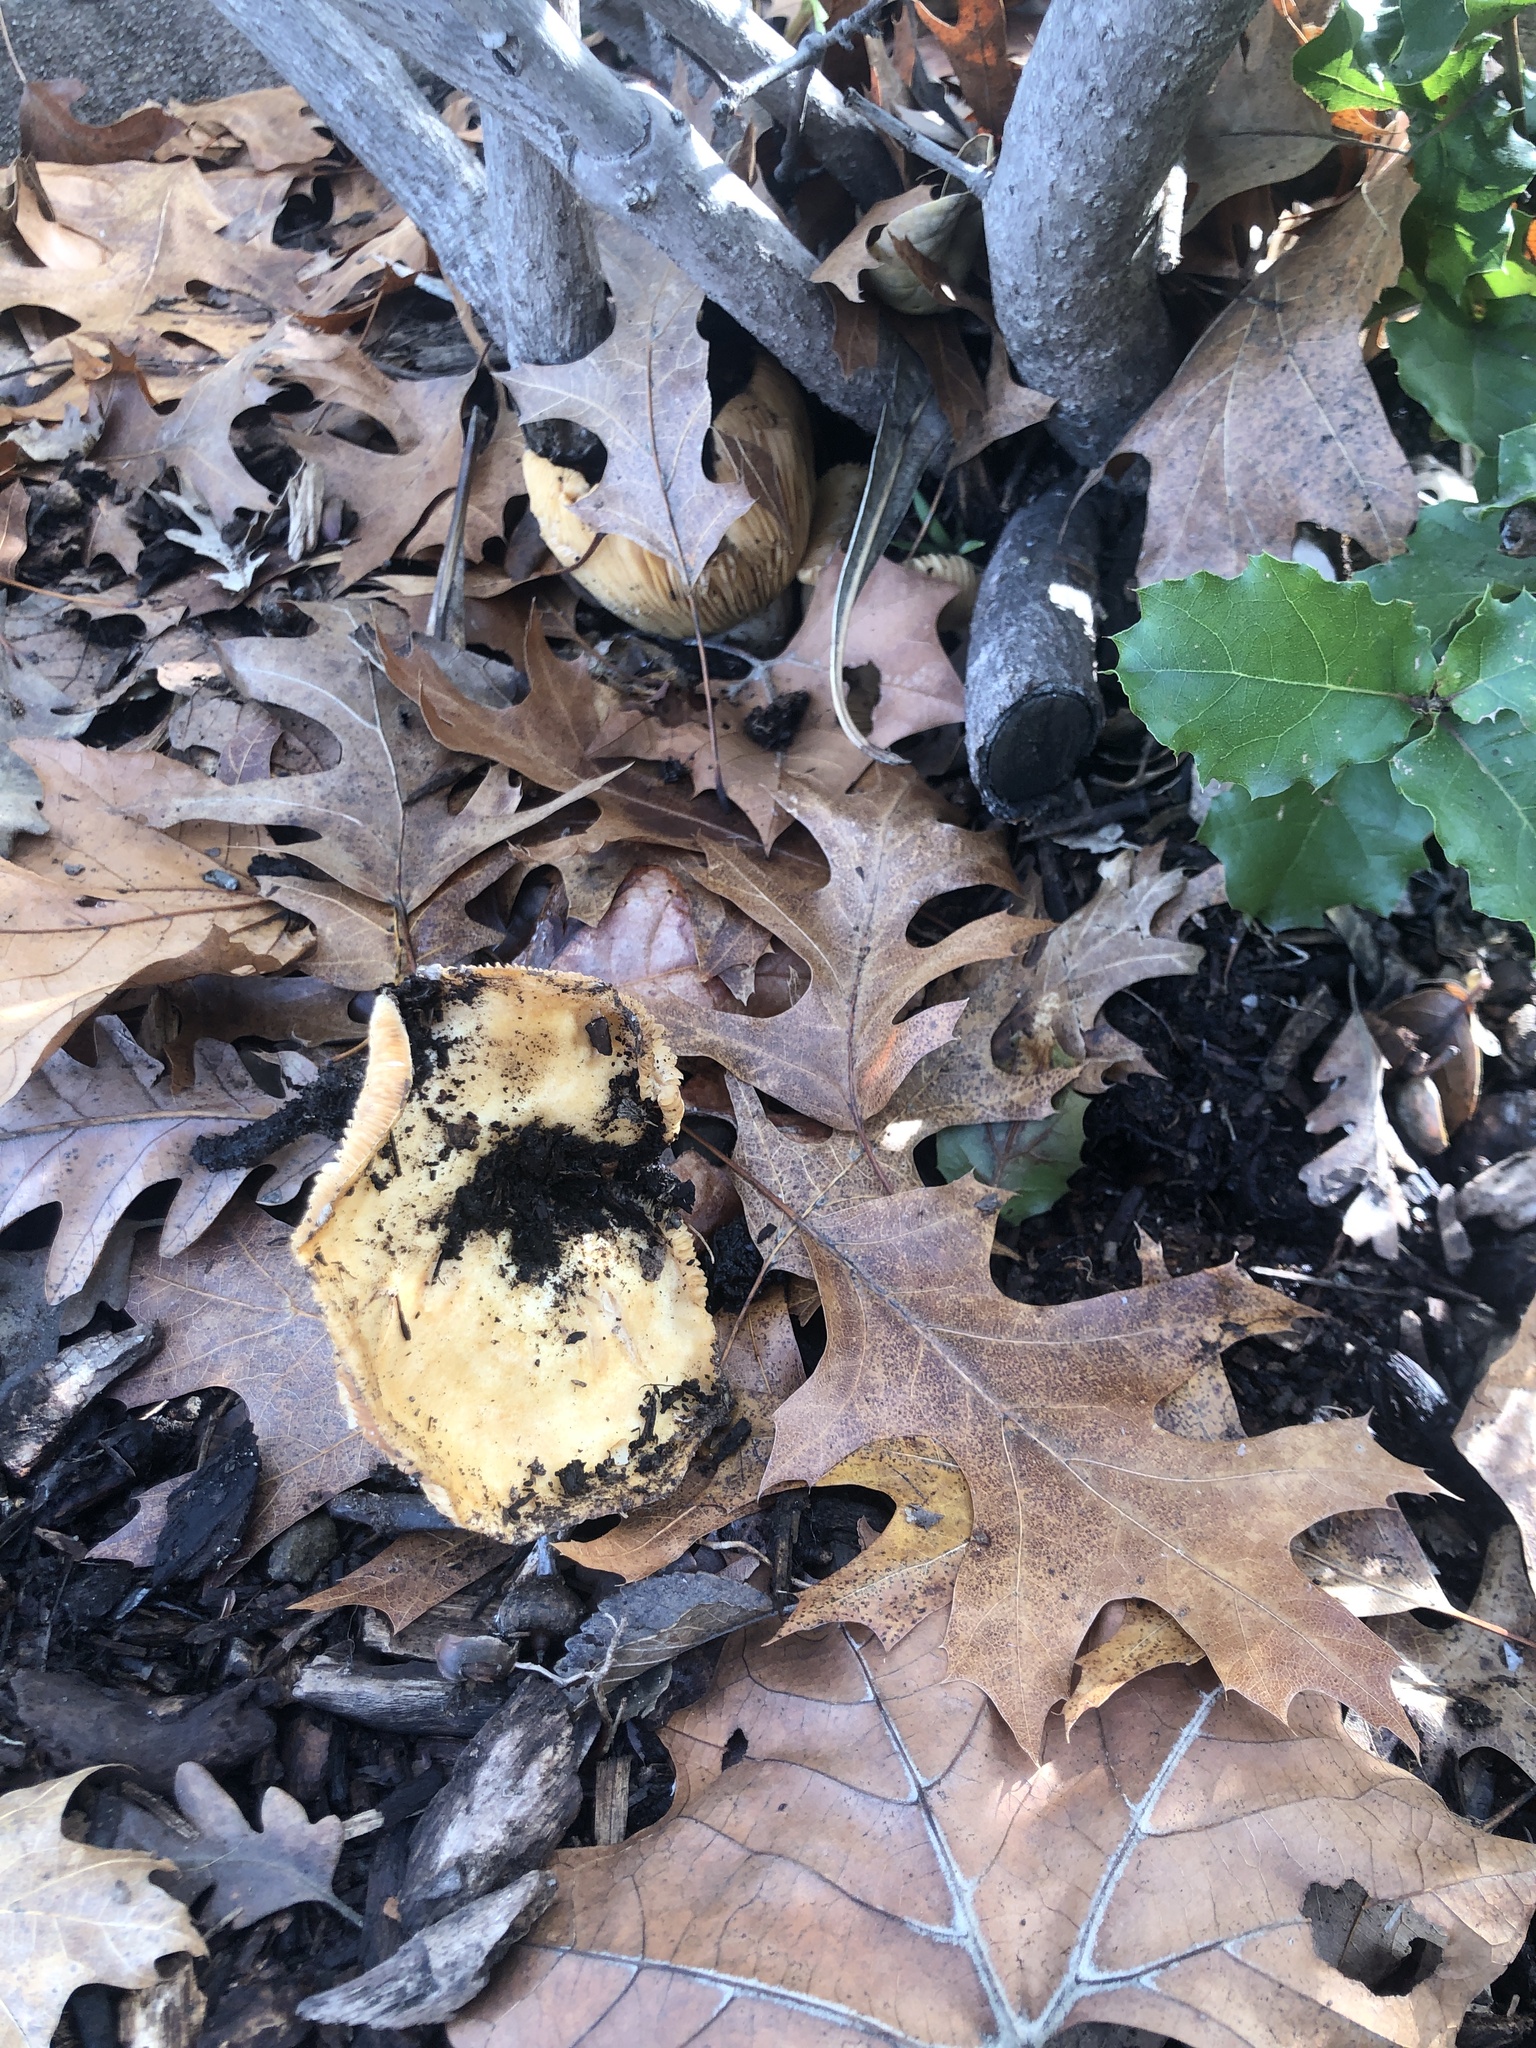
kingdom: Fungi
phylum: Basidiomycota
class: Agaricomycetes
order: Russulales
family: Russulaceae
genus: Lactarius
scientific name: Lactarius alnicola
